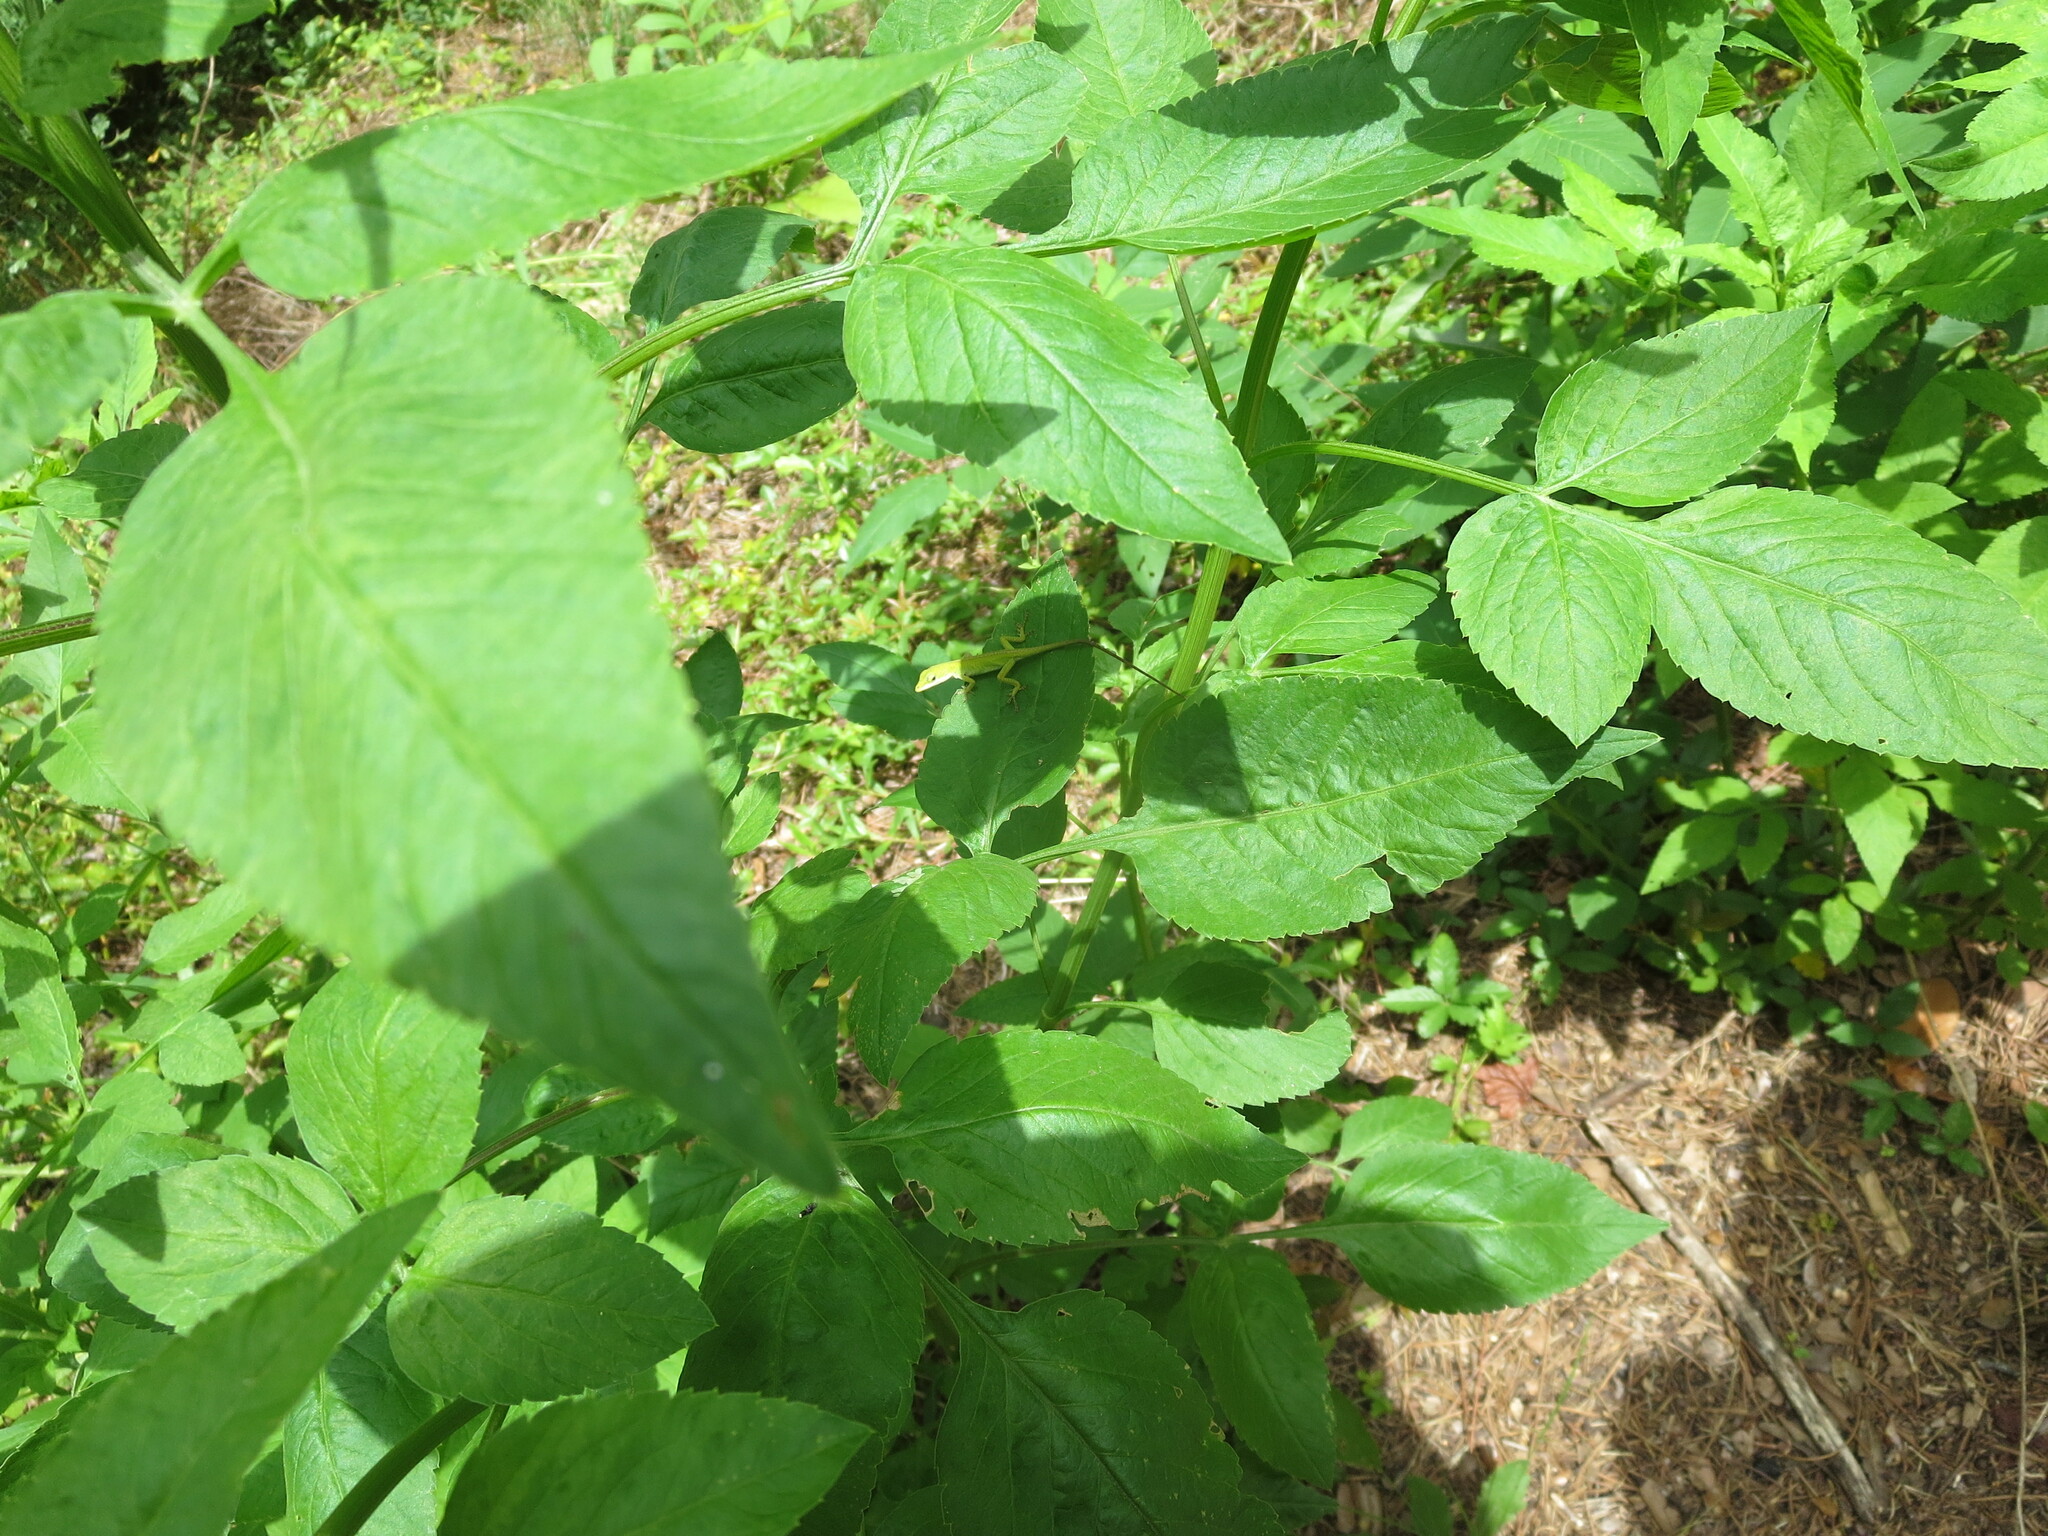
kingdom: Animalia
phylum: Chordata
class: Squamata
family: Dactyloidae
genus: Anolis
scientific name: Anolis carolinensis
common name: Green anole
